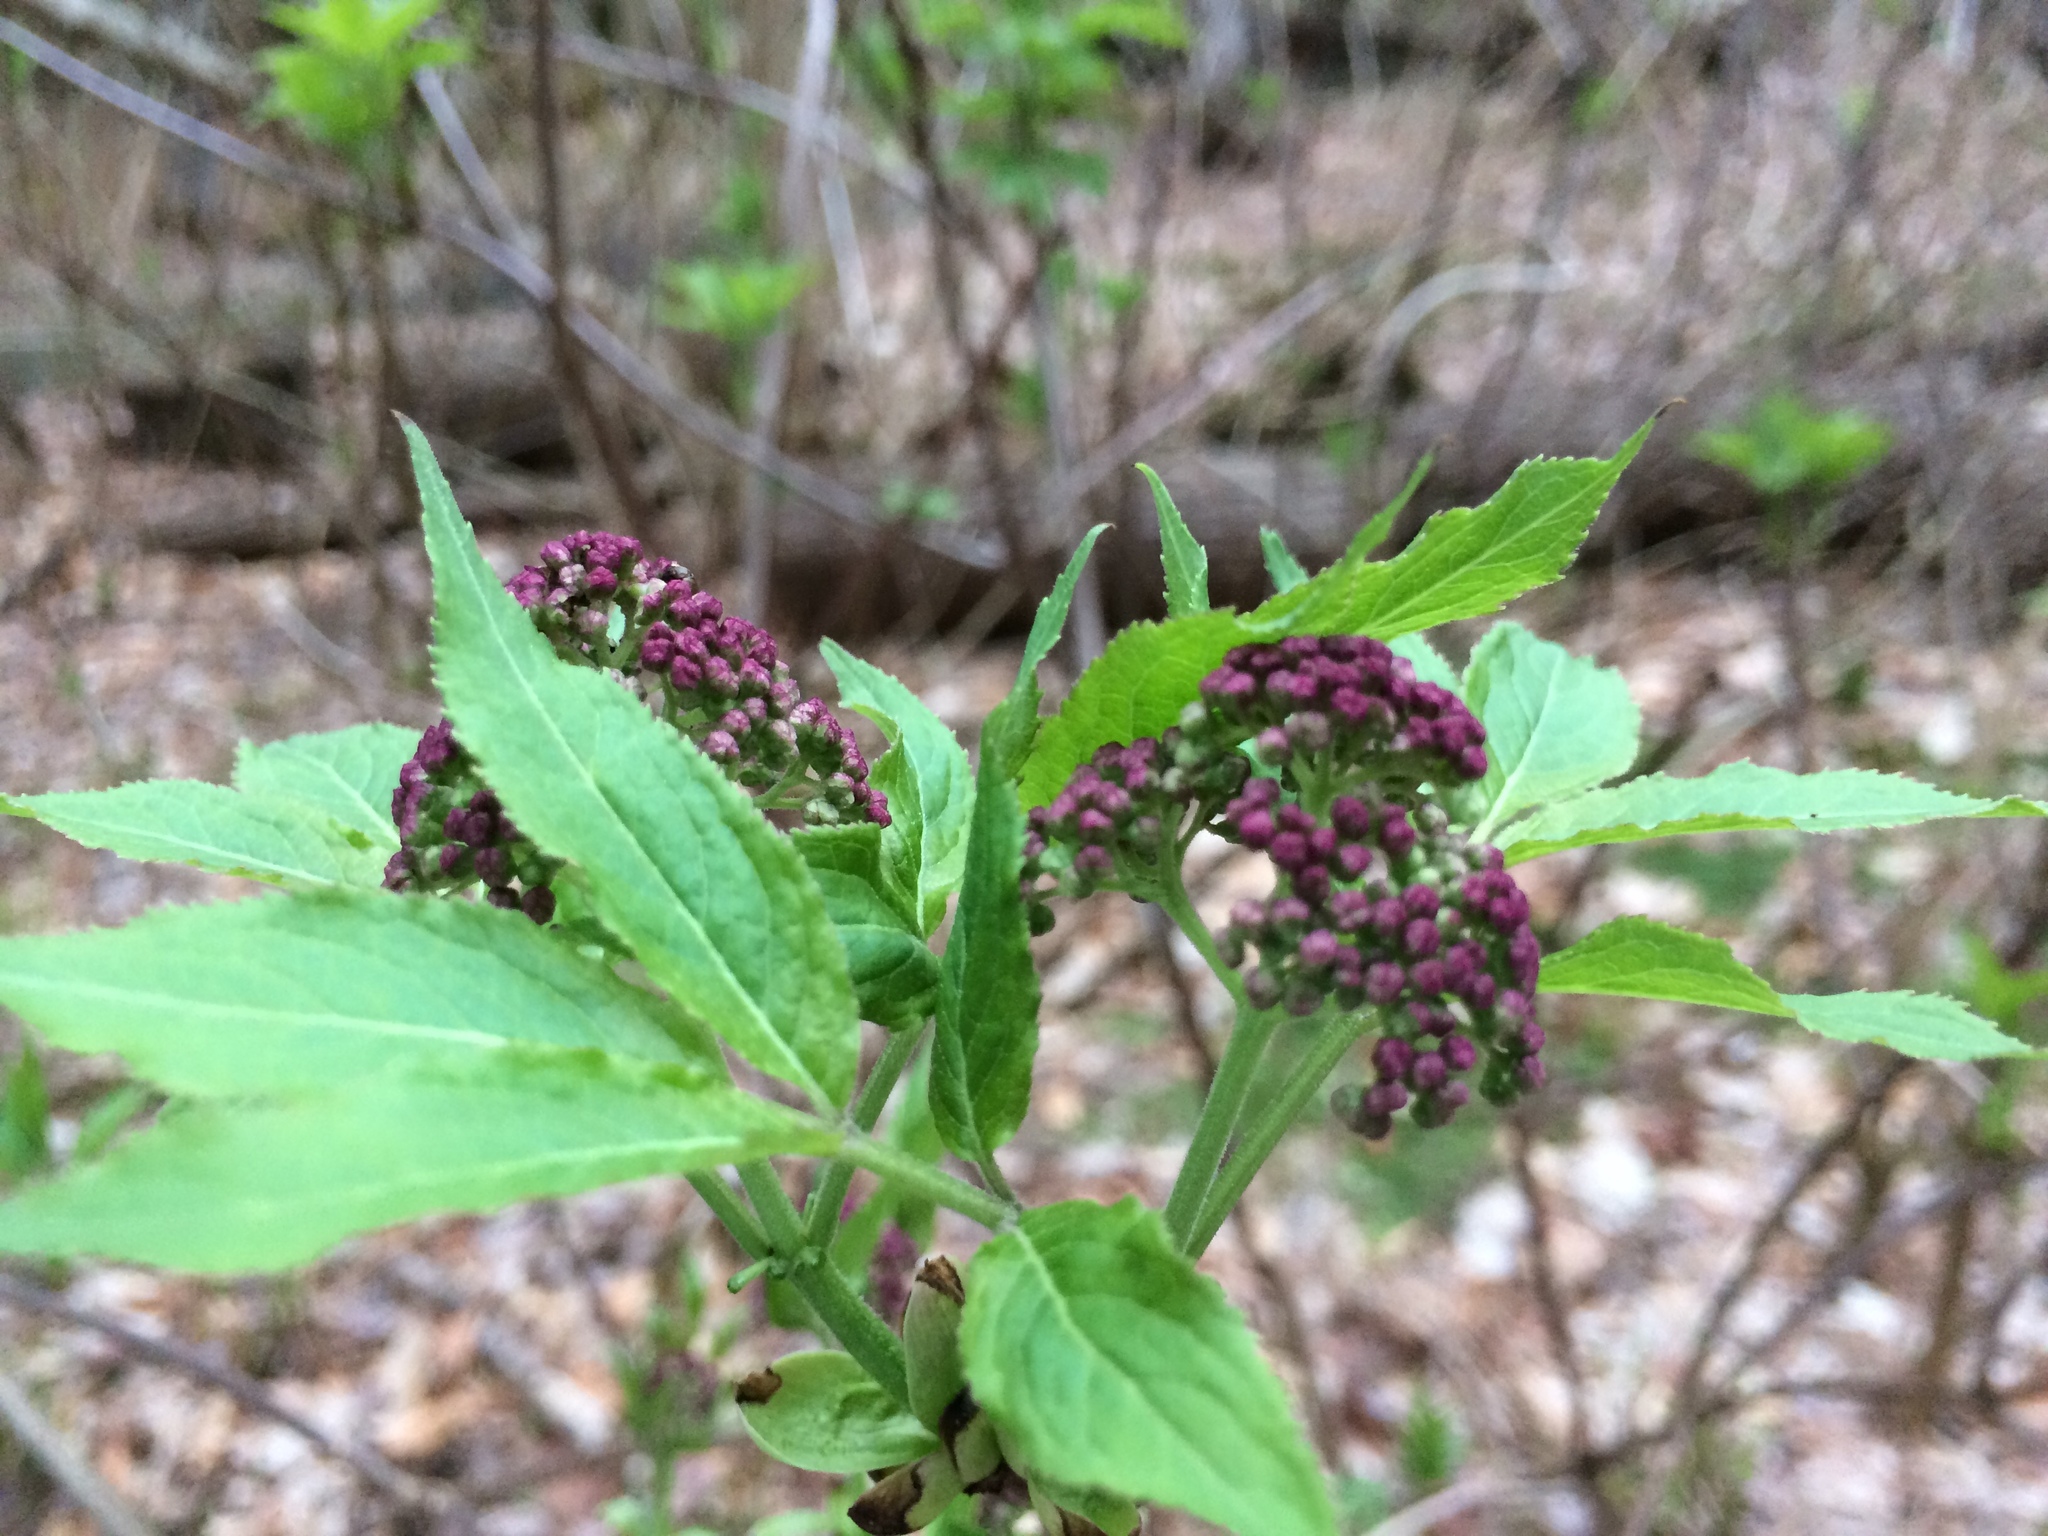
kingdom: Plantae
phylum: Tracheophyta
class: Magnoliopsida
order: Dipsacales
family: Viburnaceae
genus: Sambucus
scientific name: Sambucus racemosa
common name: Red-berried elder
